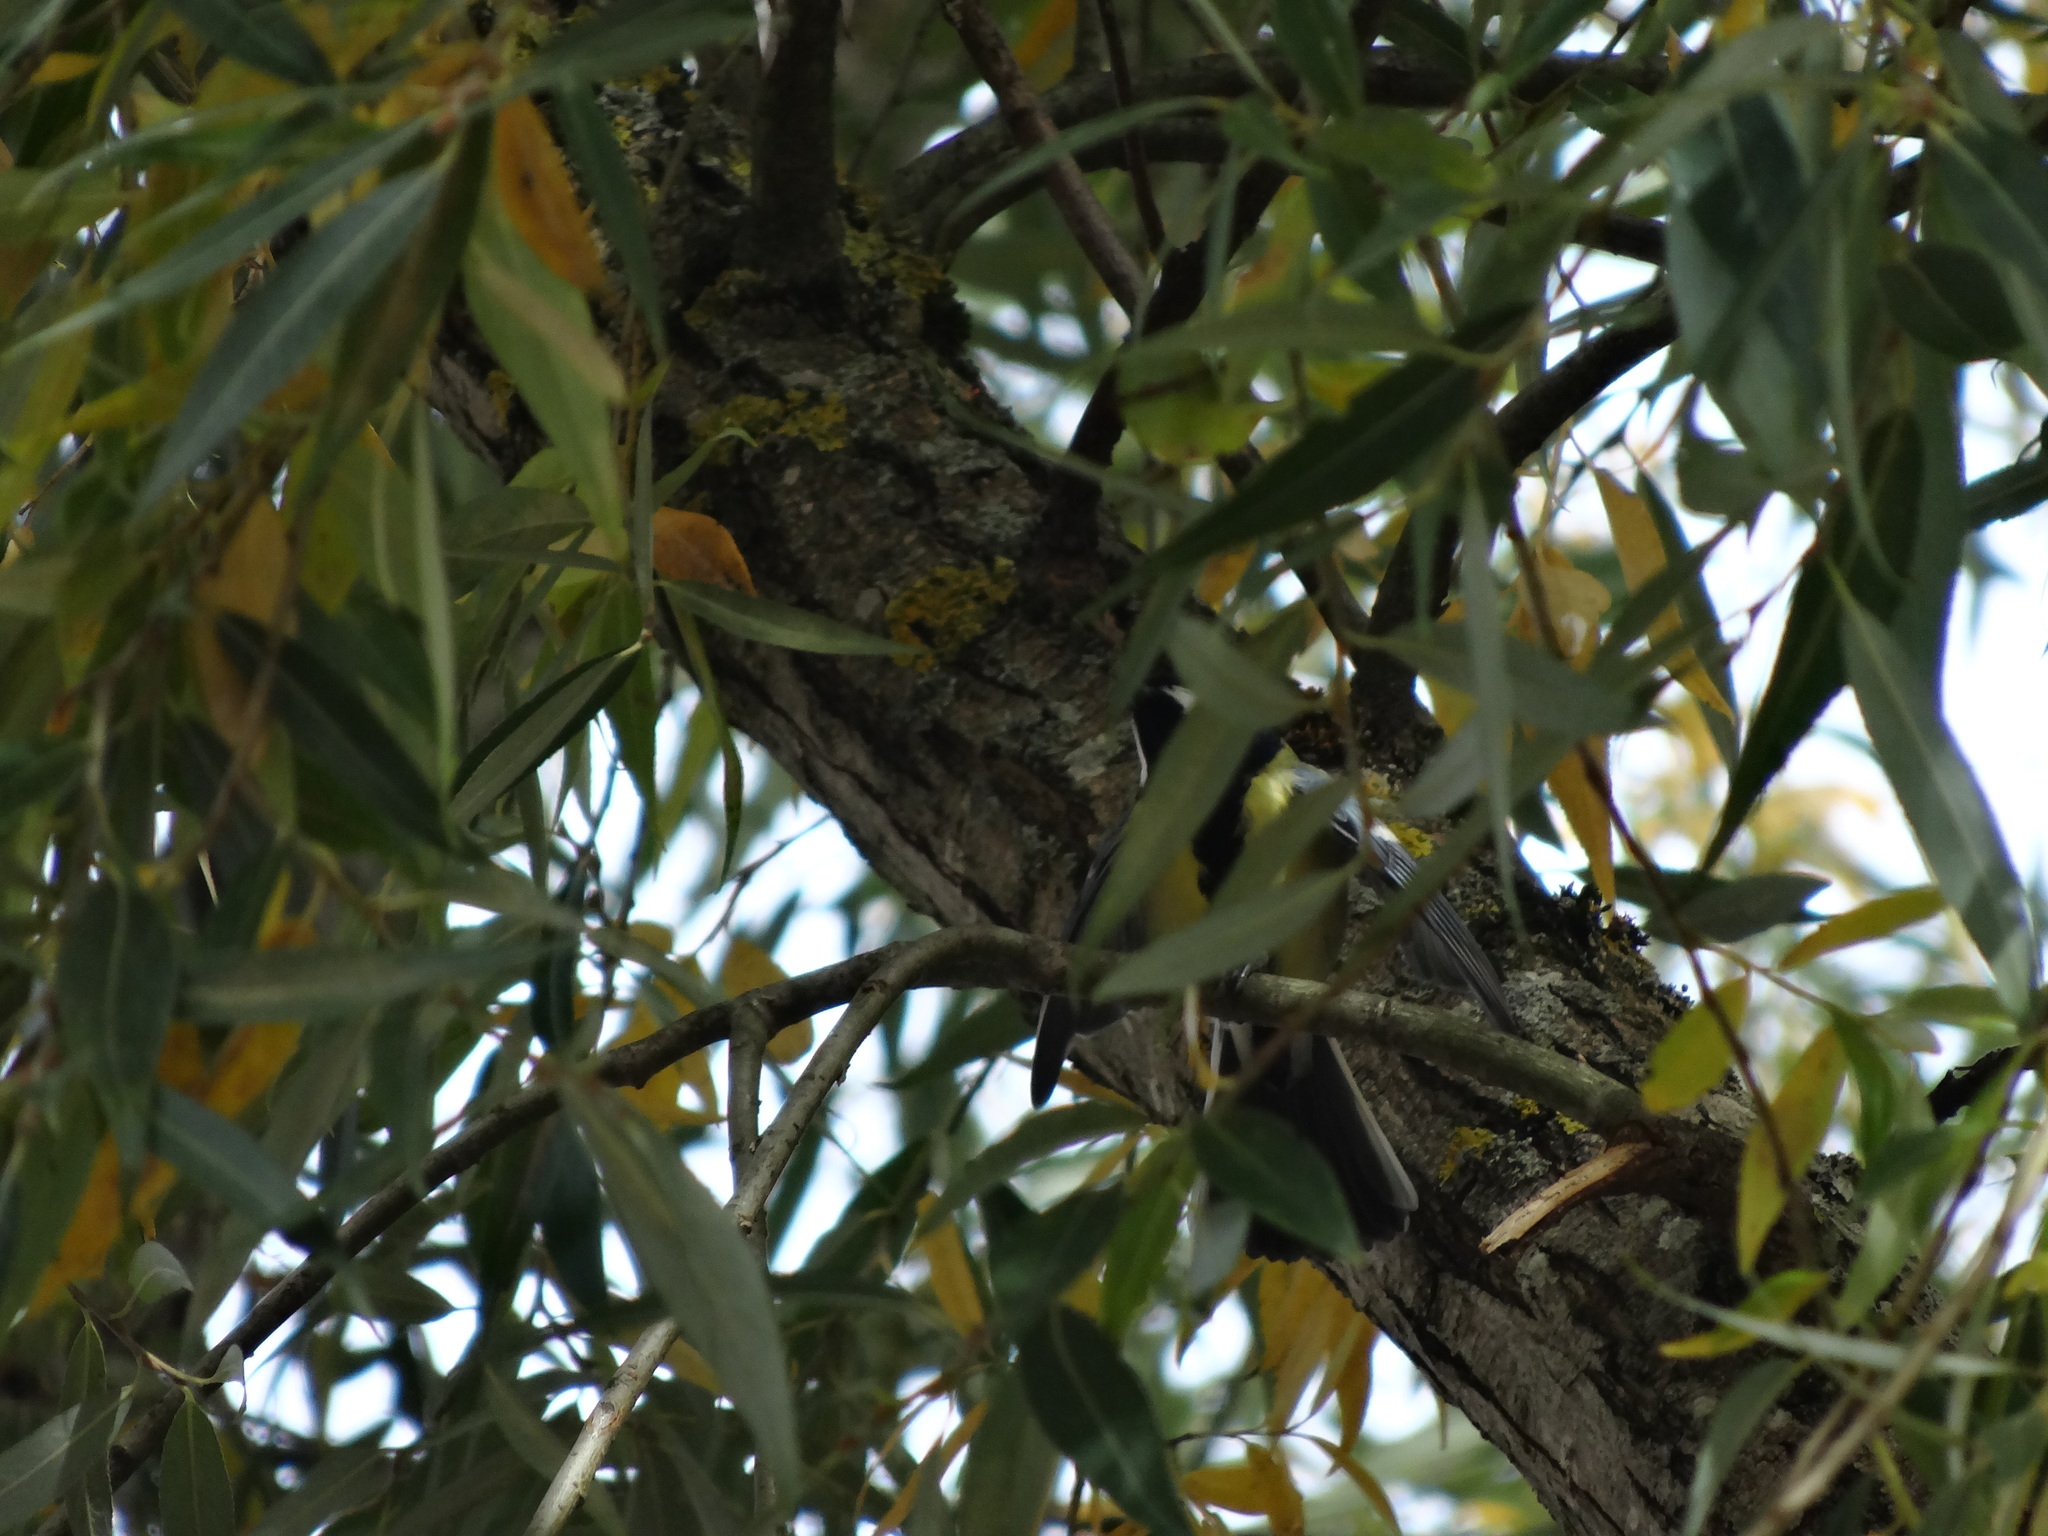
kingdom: Animalia
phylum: Chordata
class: Aves
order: Passeriformes
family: Paridae
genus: Parus
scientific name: Parus major
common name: Great tit
